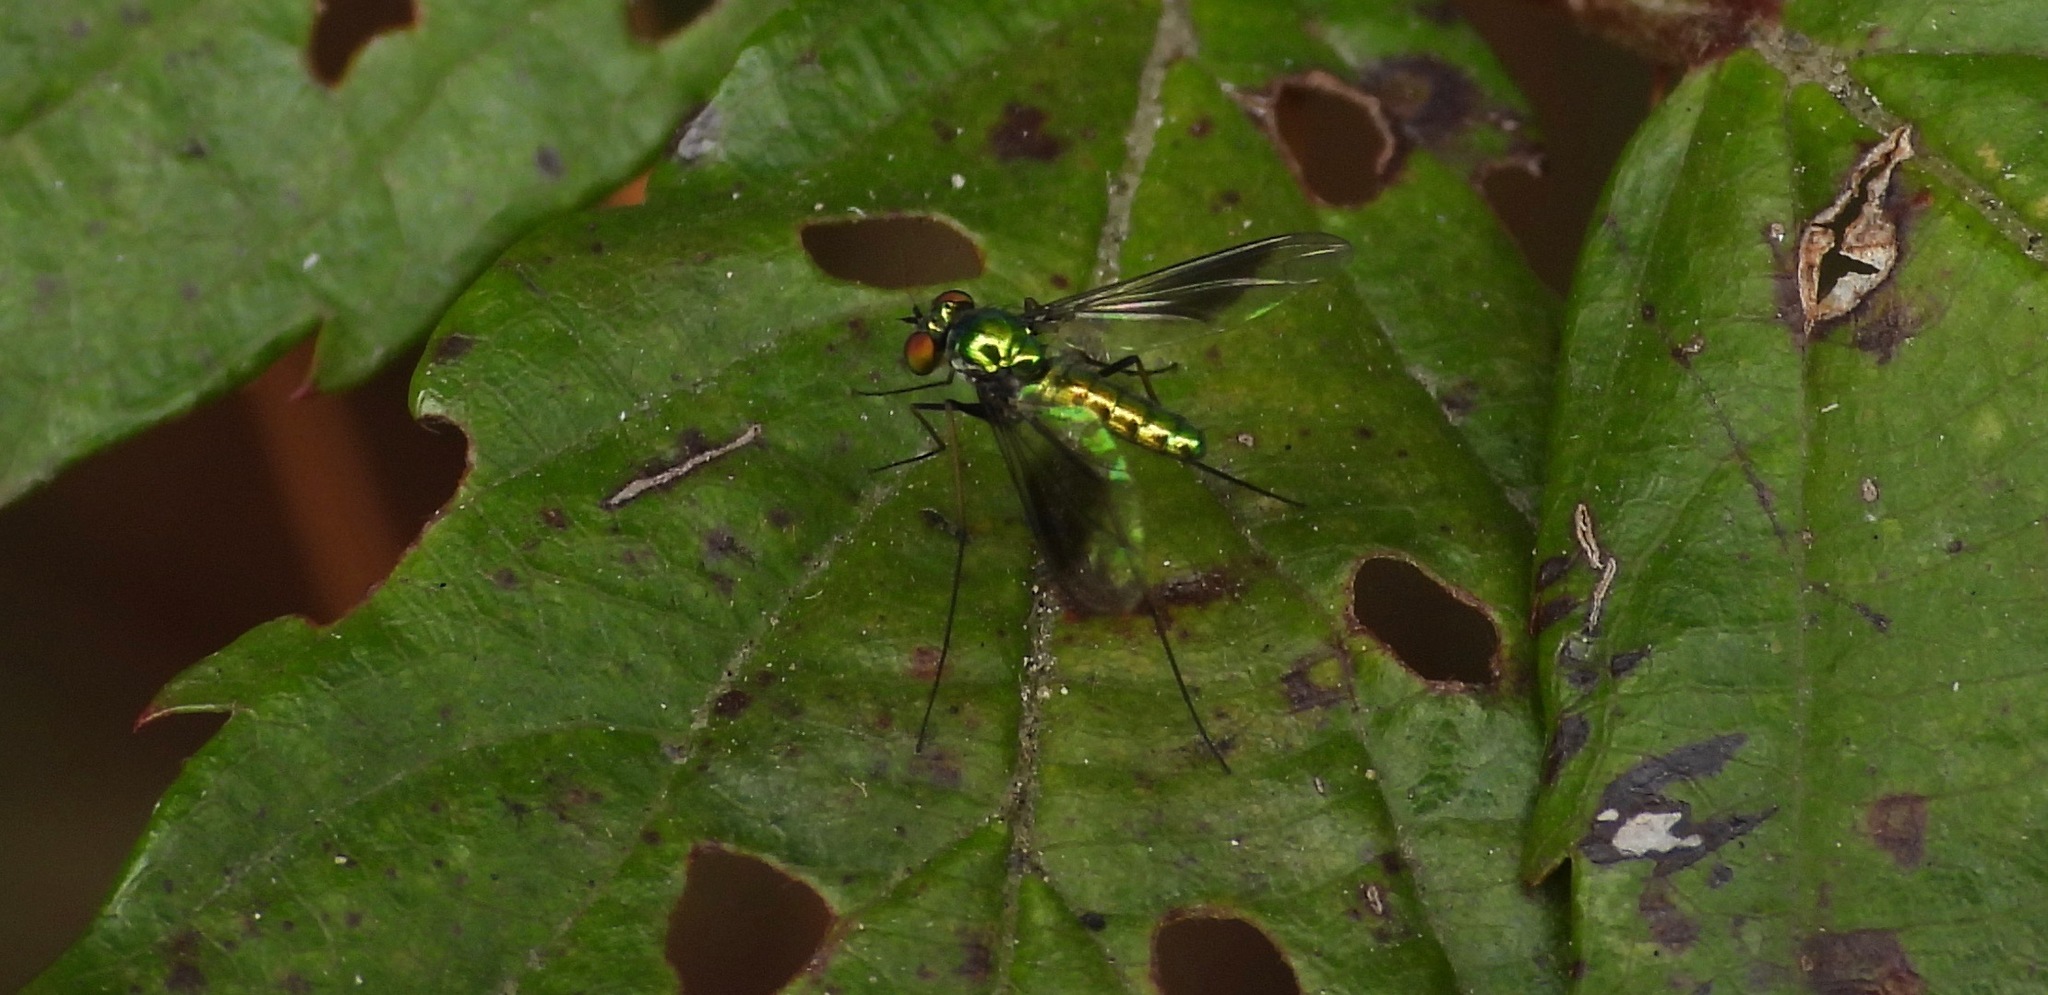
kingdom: Animalia
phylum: Arthropoda
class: Insecta
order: Diptera
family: Dolichopodidae
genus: Amblypsilopus
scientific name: Amblypsilopus medianus
